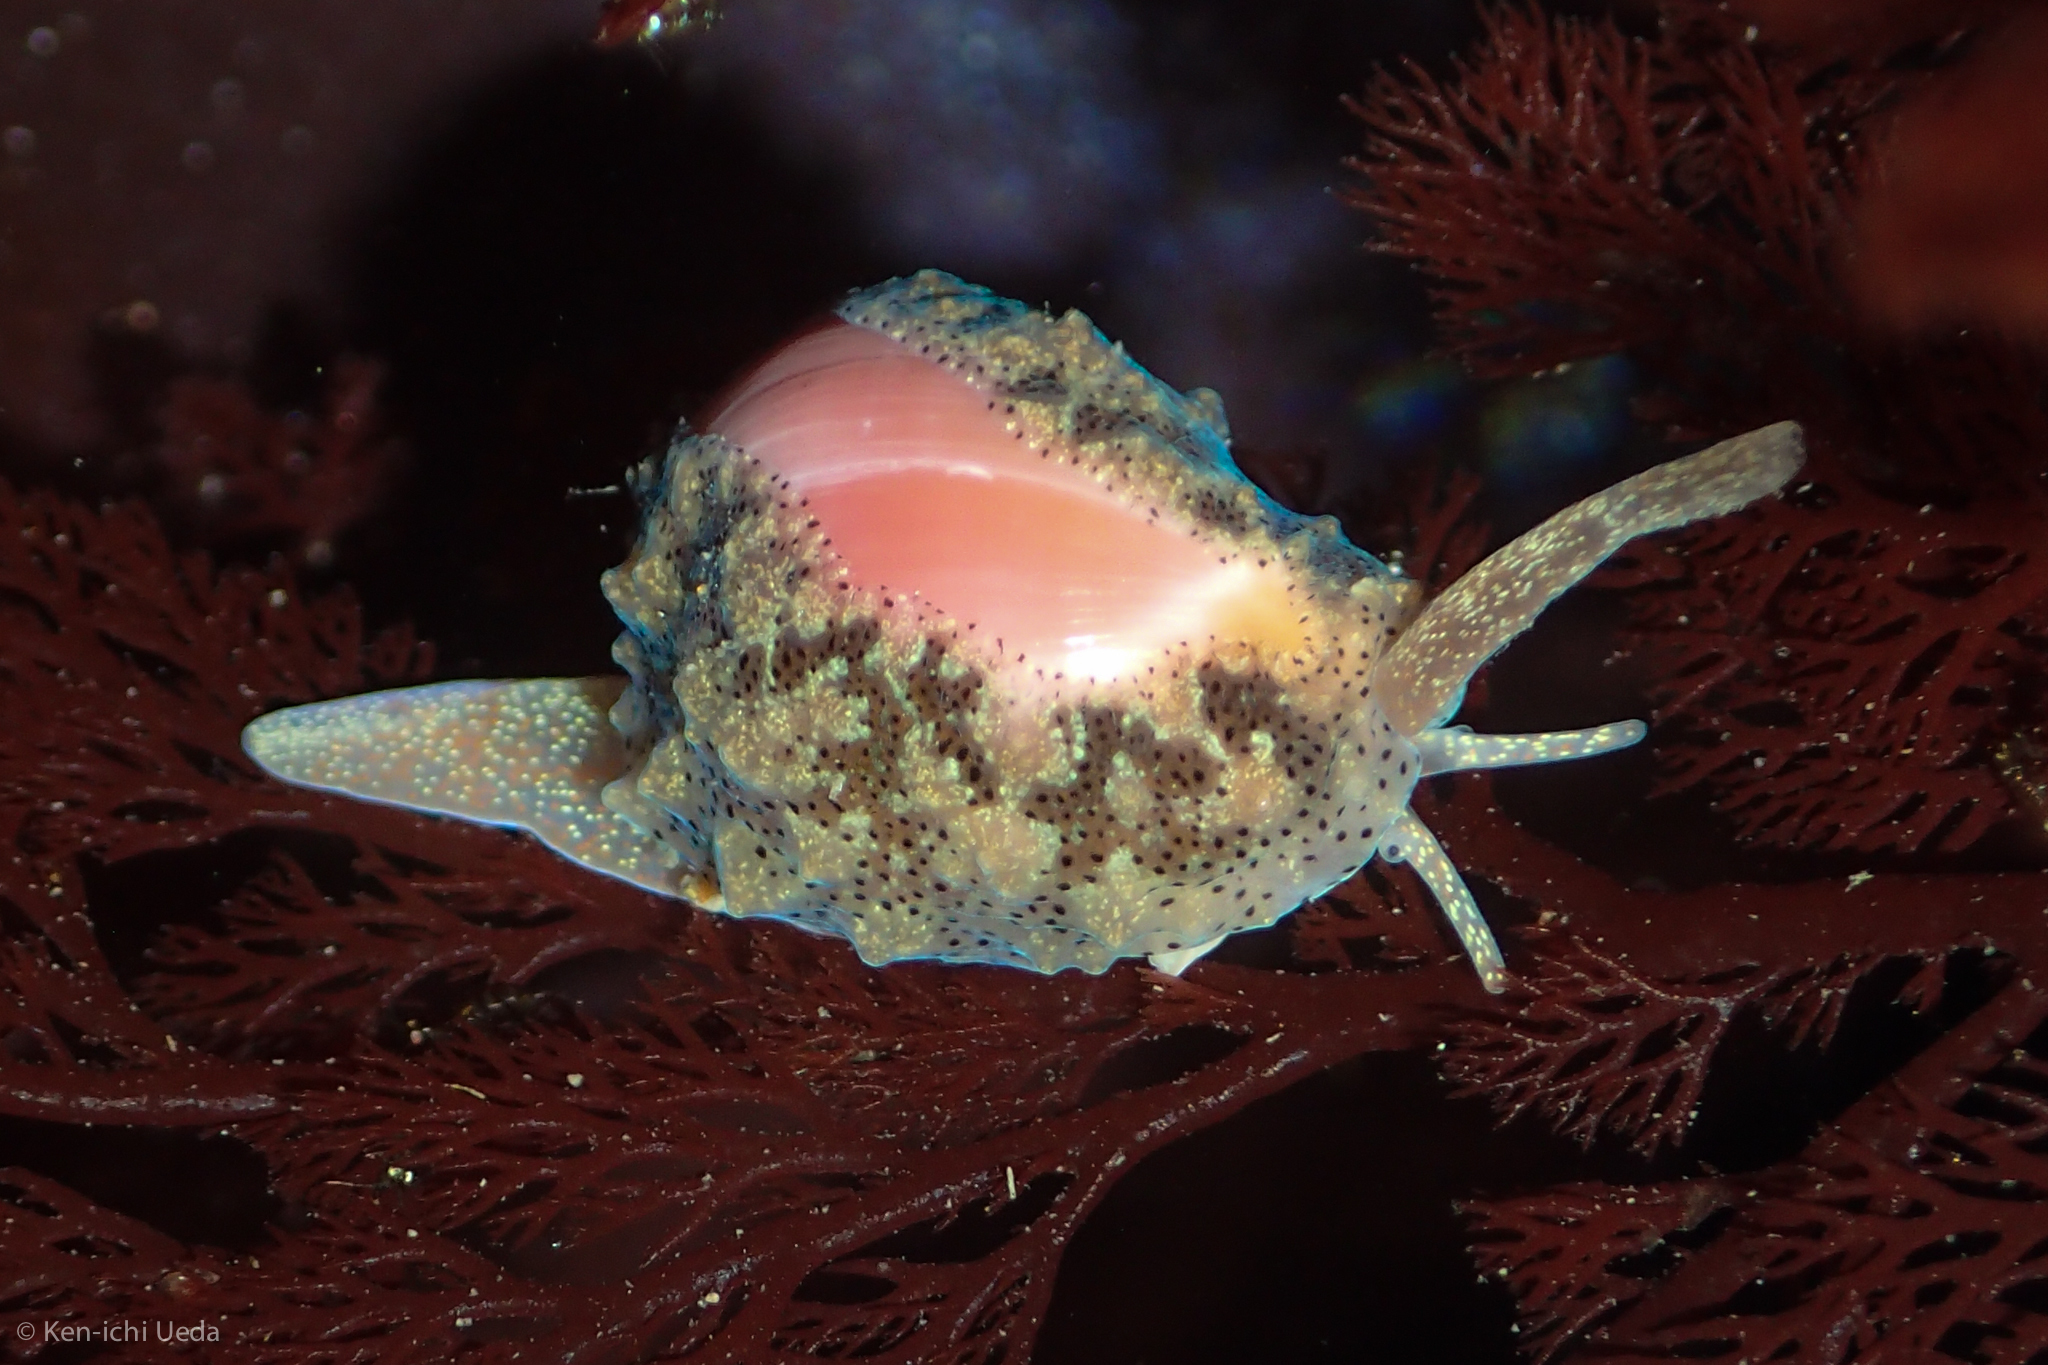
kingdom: Animalia
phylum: Mollusca
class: Gastropoda
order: Littorinimorpha
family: Eratoidae
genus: Hespererato
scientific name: Hespererato vitellina
